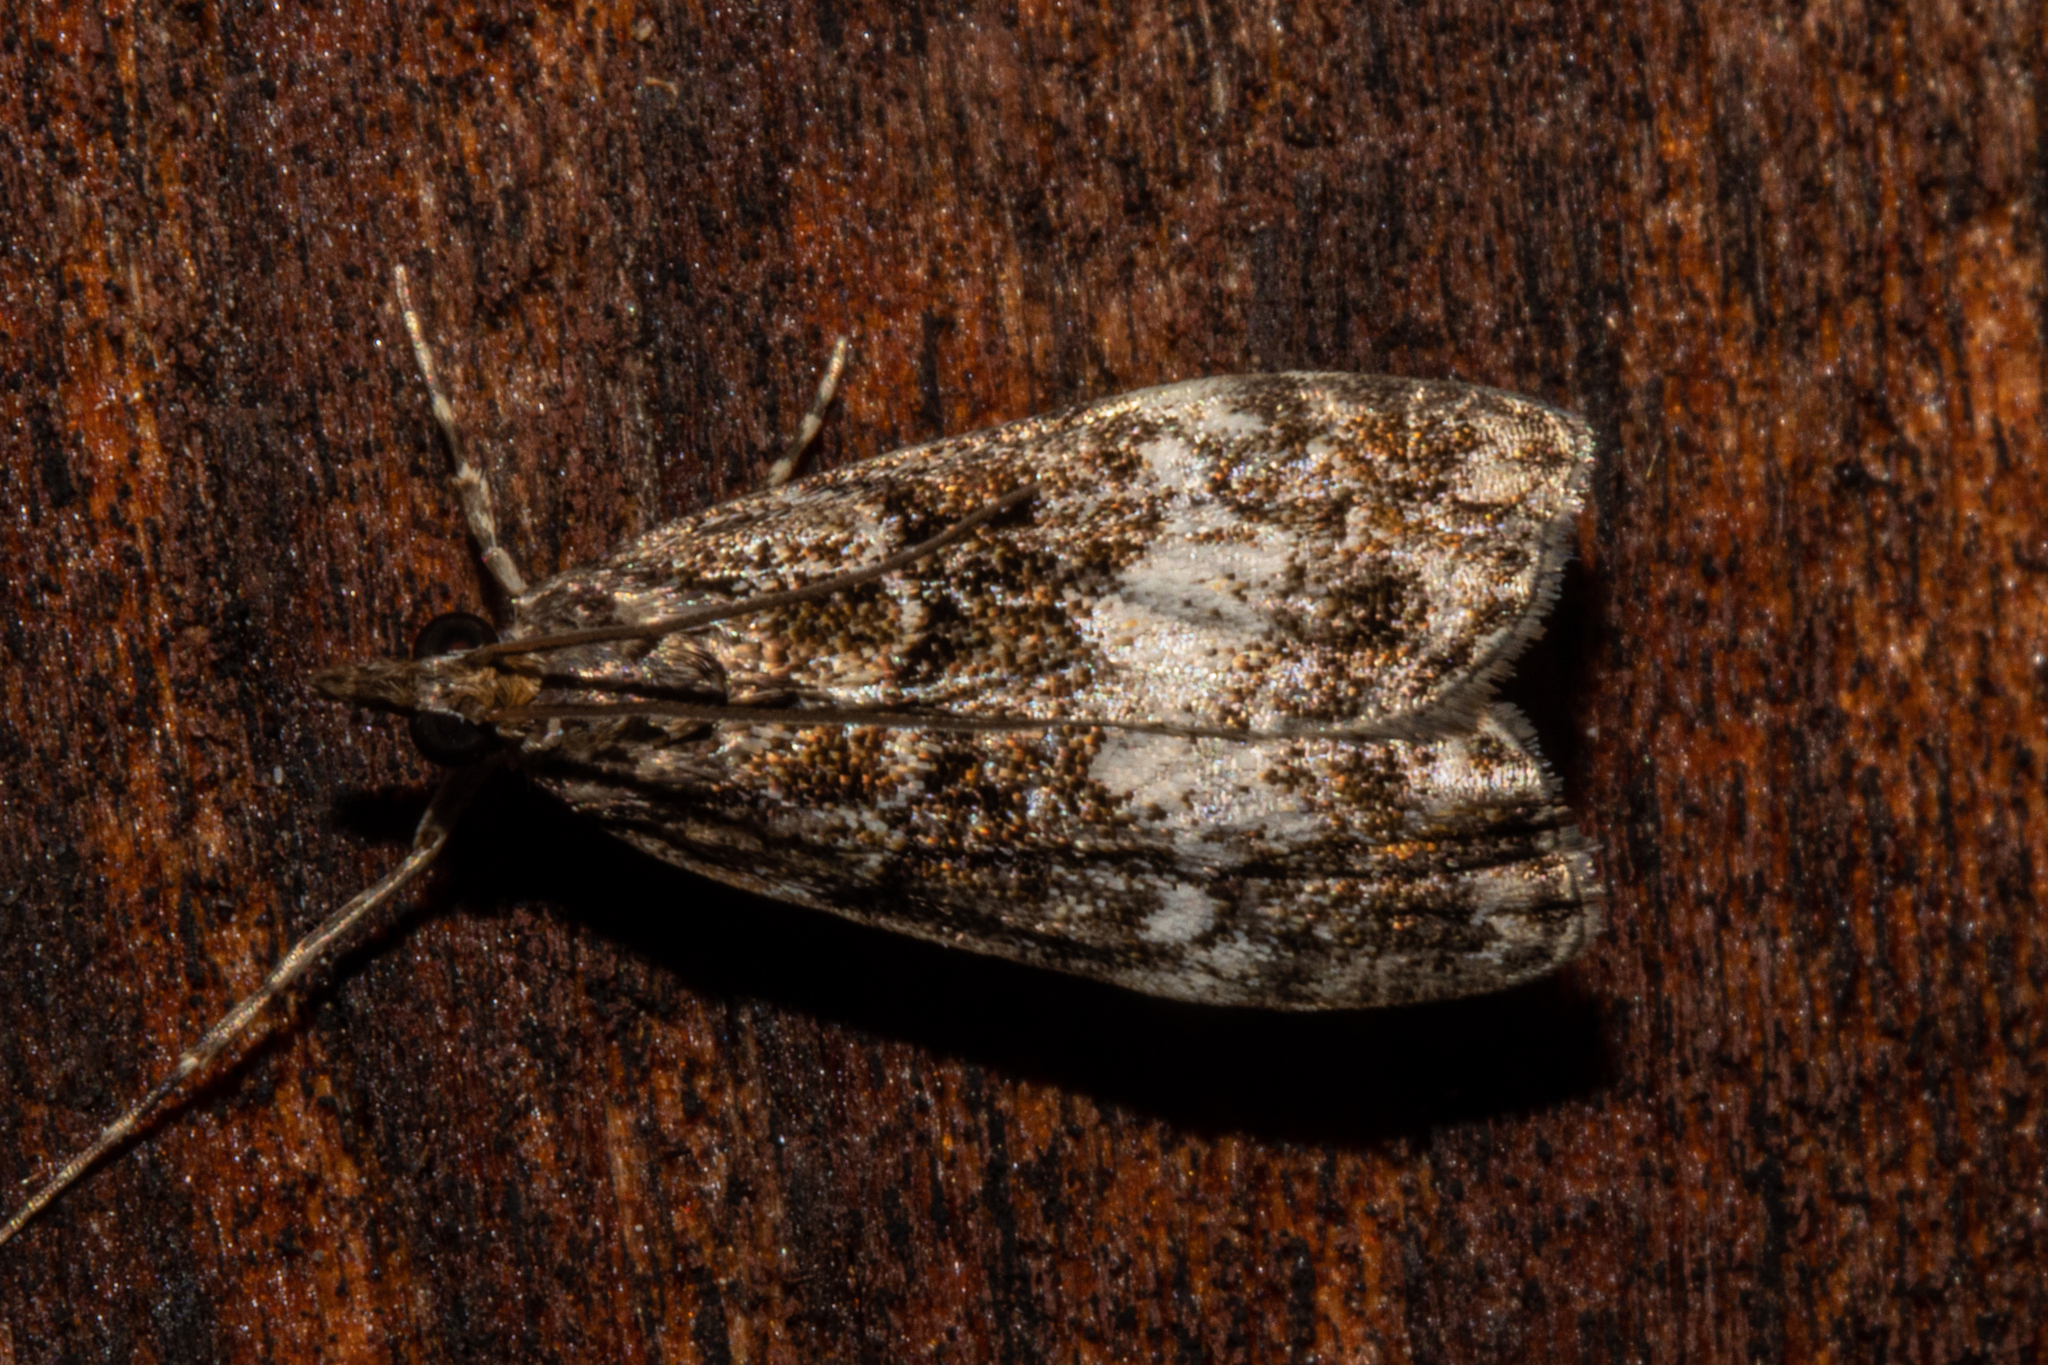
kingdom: Animalia
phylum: Arthropoda
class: Insecta
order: Lepidoptera
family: Crambidae
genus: Eudonia
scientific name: Eudonia dinodes
